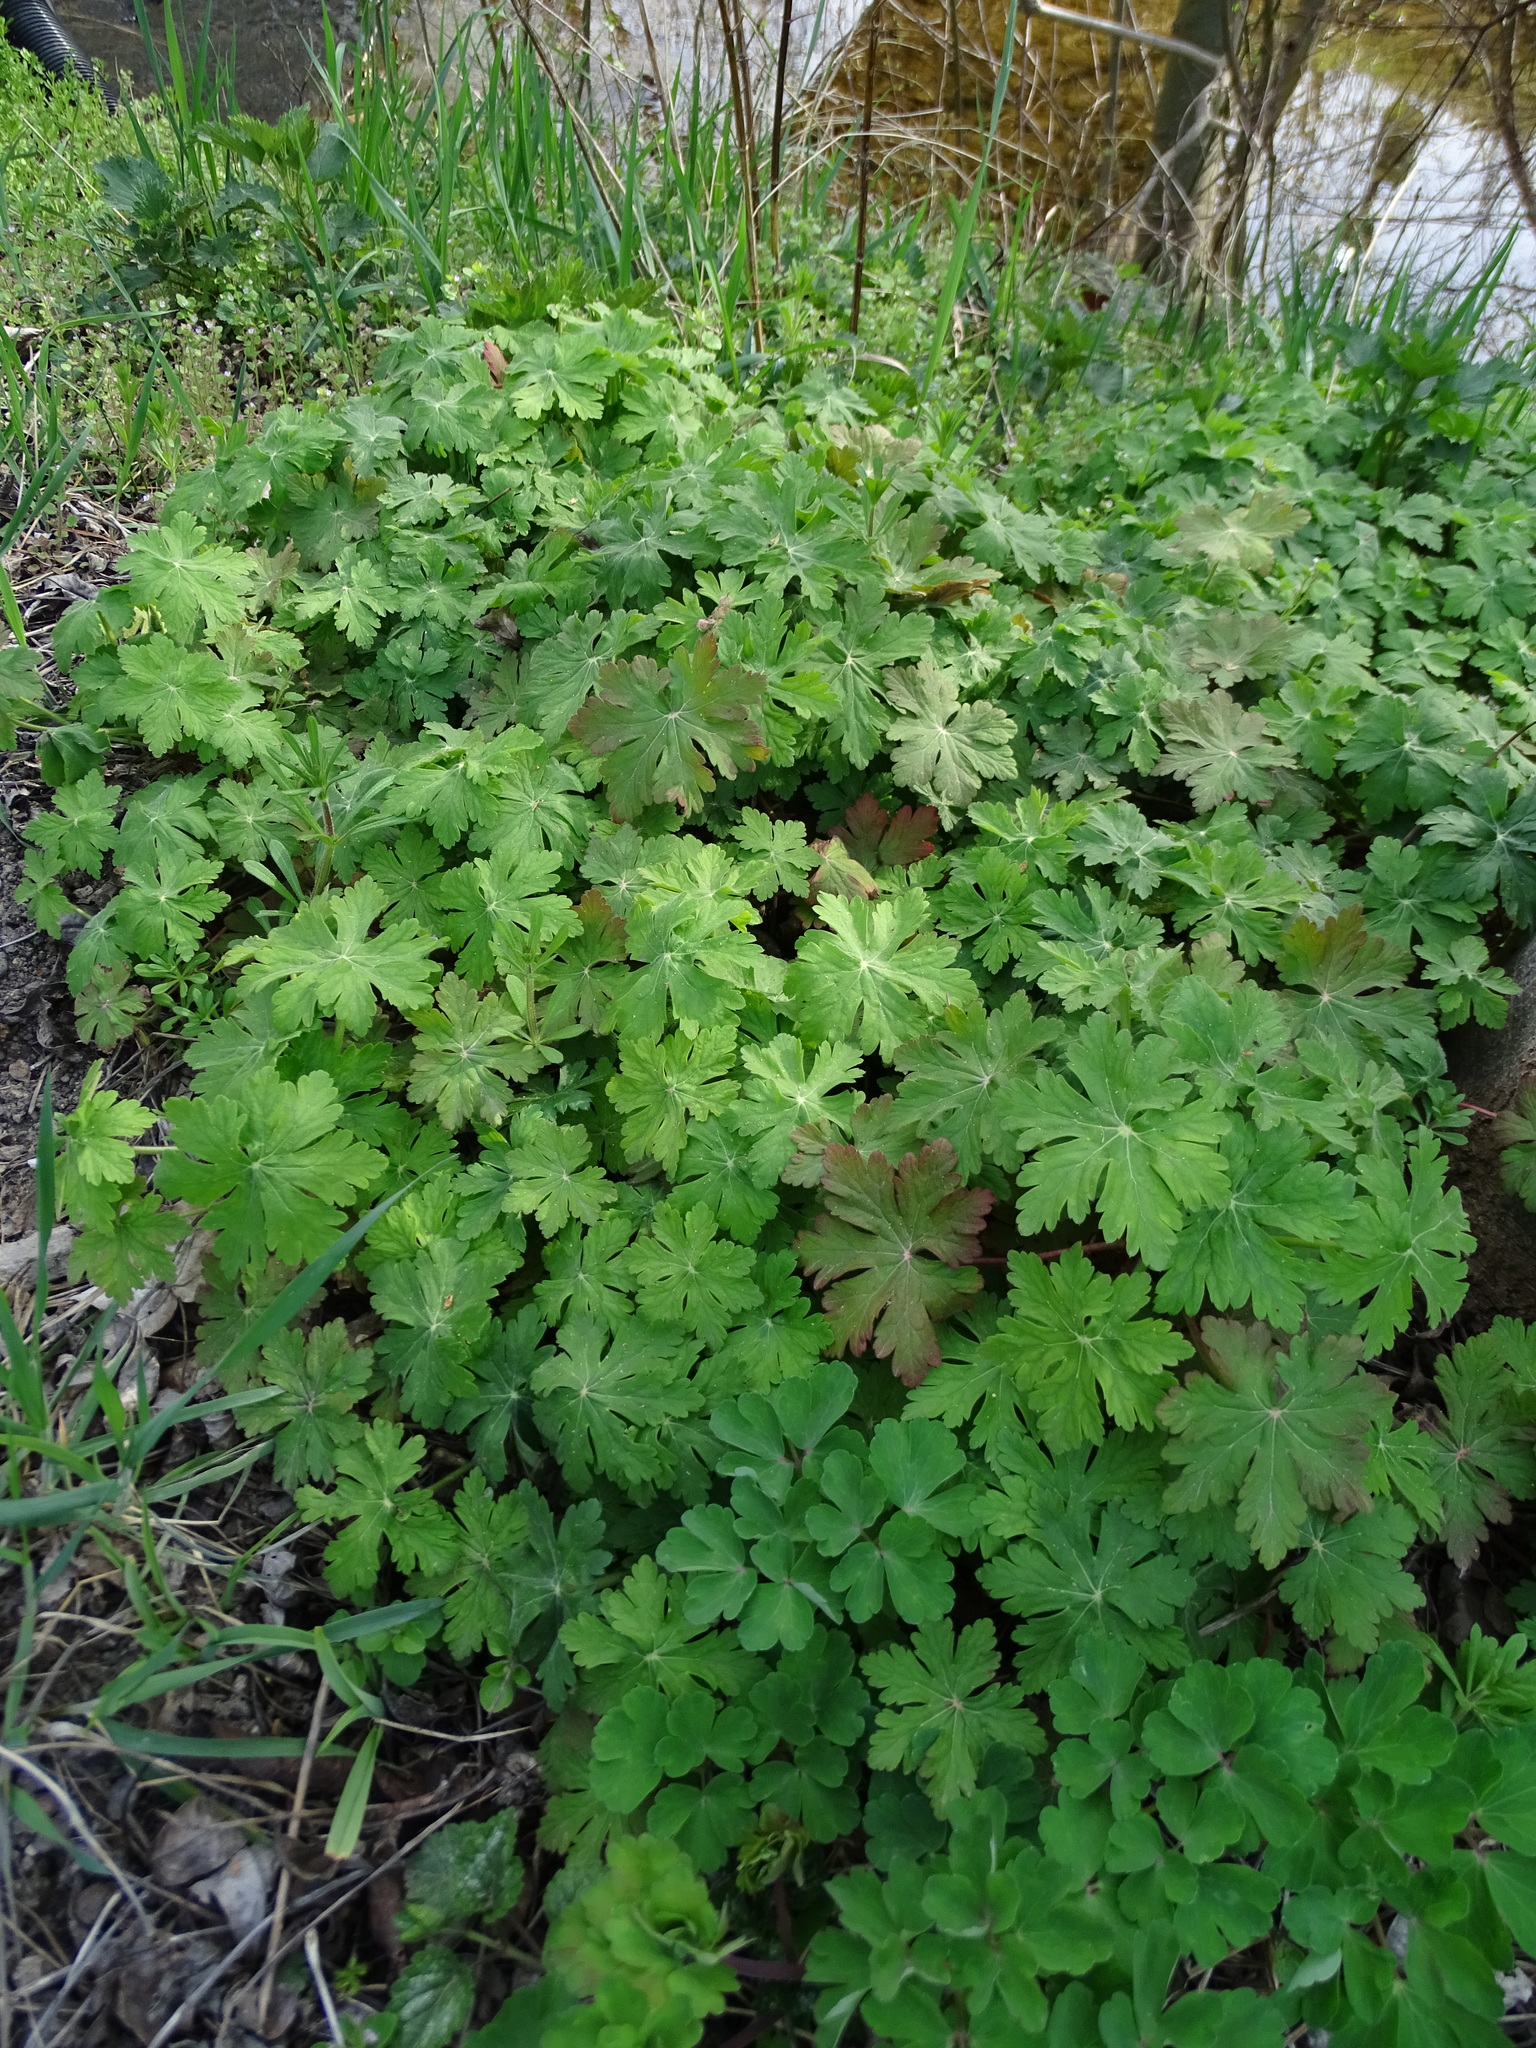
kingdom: Plantae
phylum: Tracheophyta
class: Magnoliopsida
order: Geraniales
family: Geraniaceae
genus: Geranium
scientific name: Geranium macrorrhizum
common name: Rock crane's-bill
